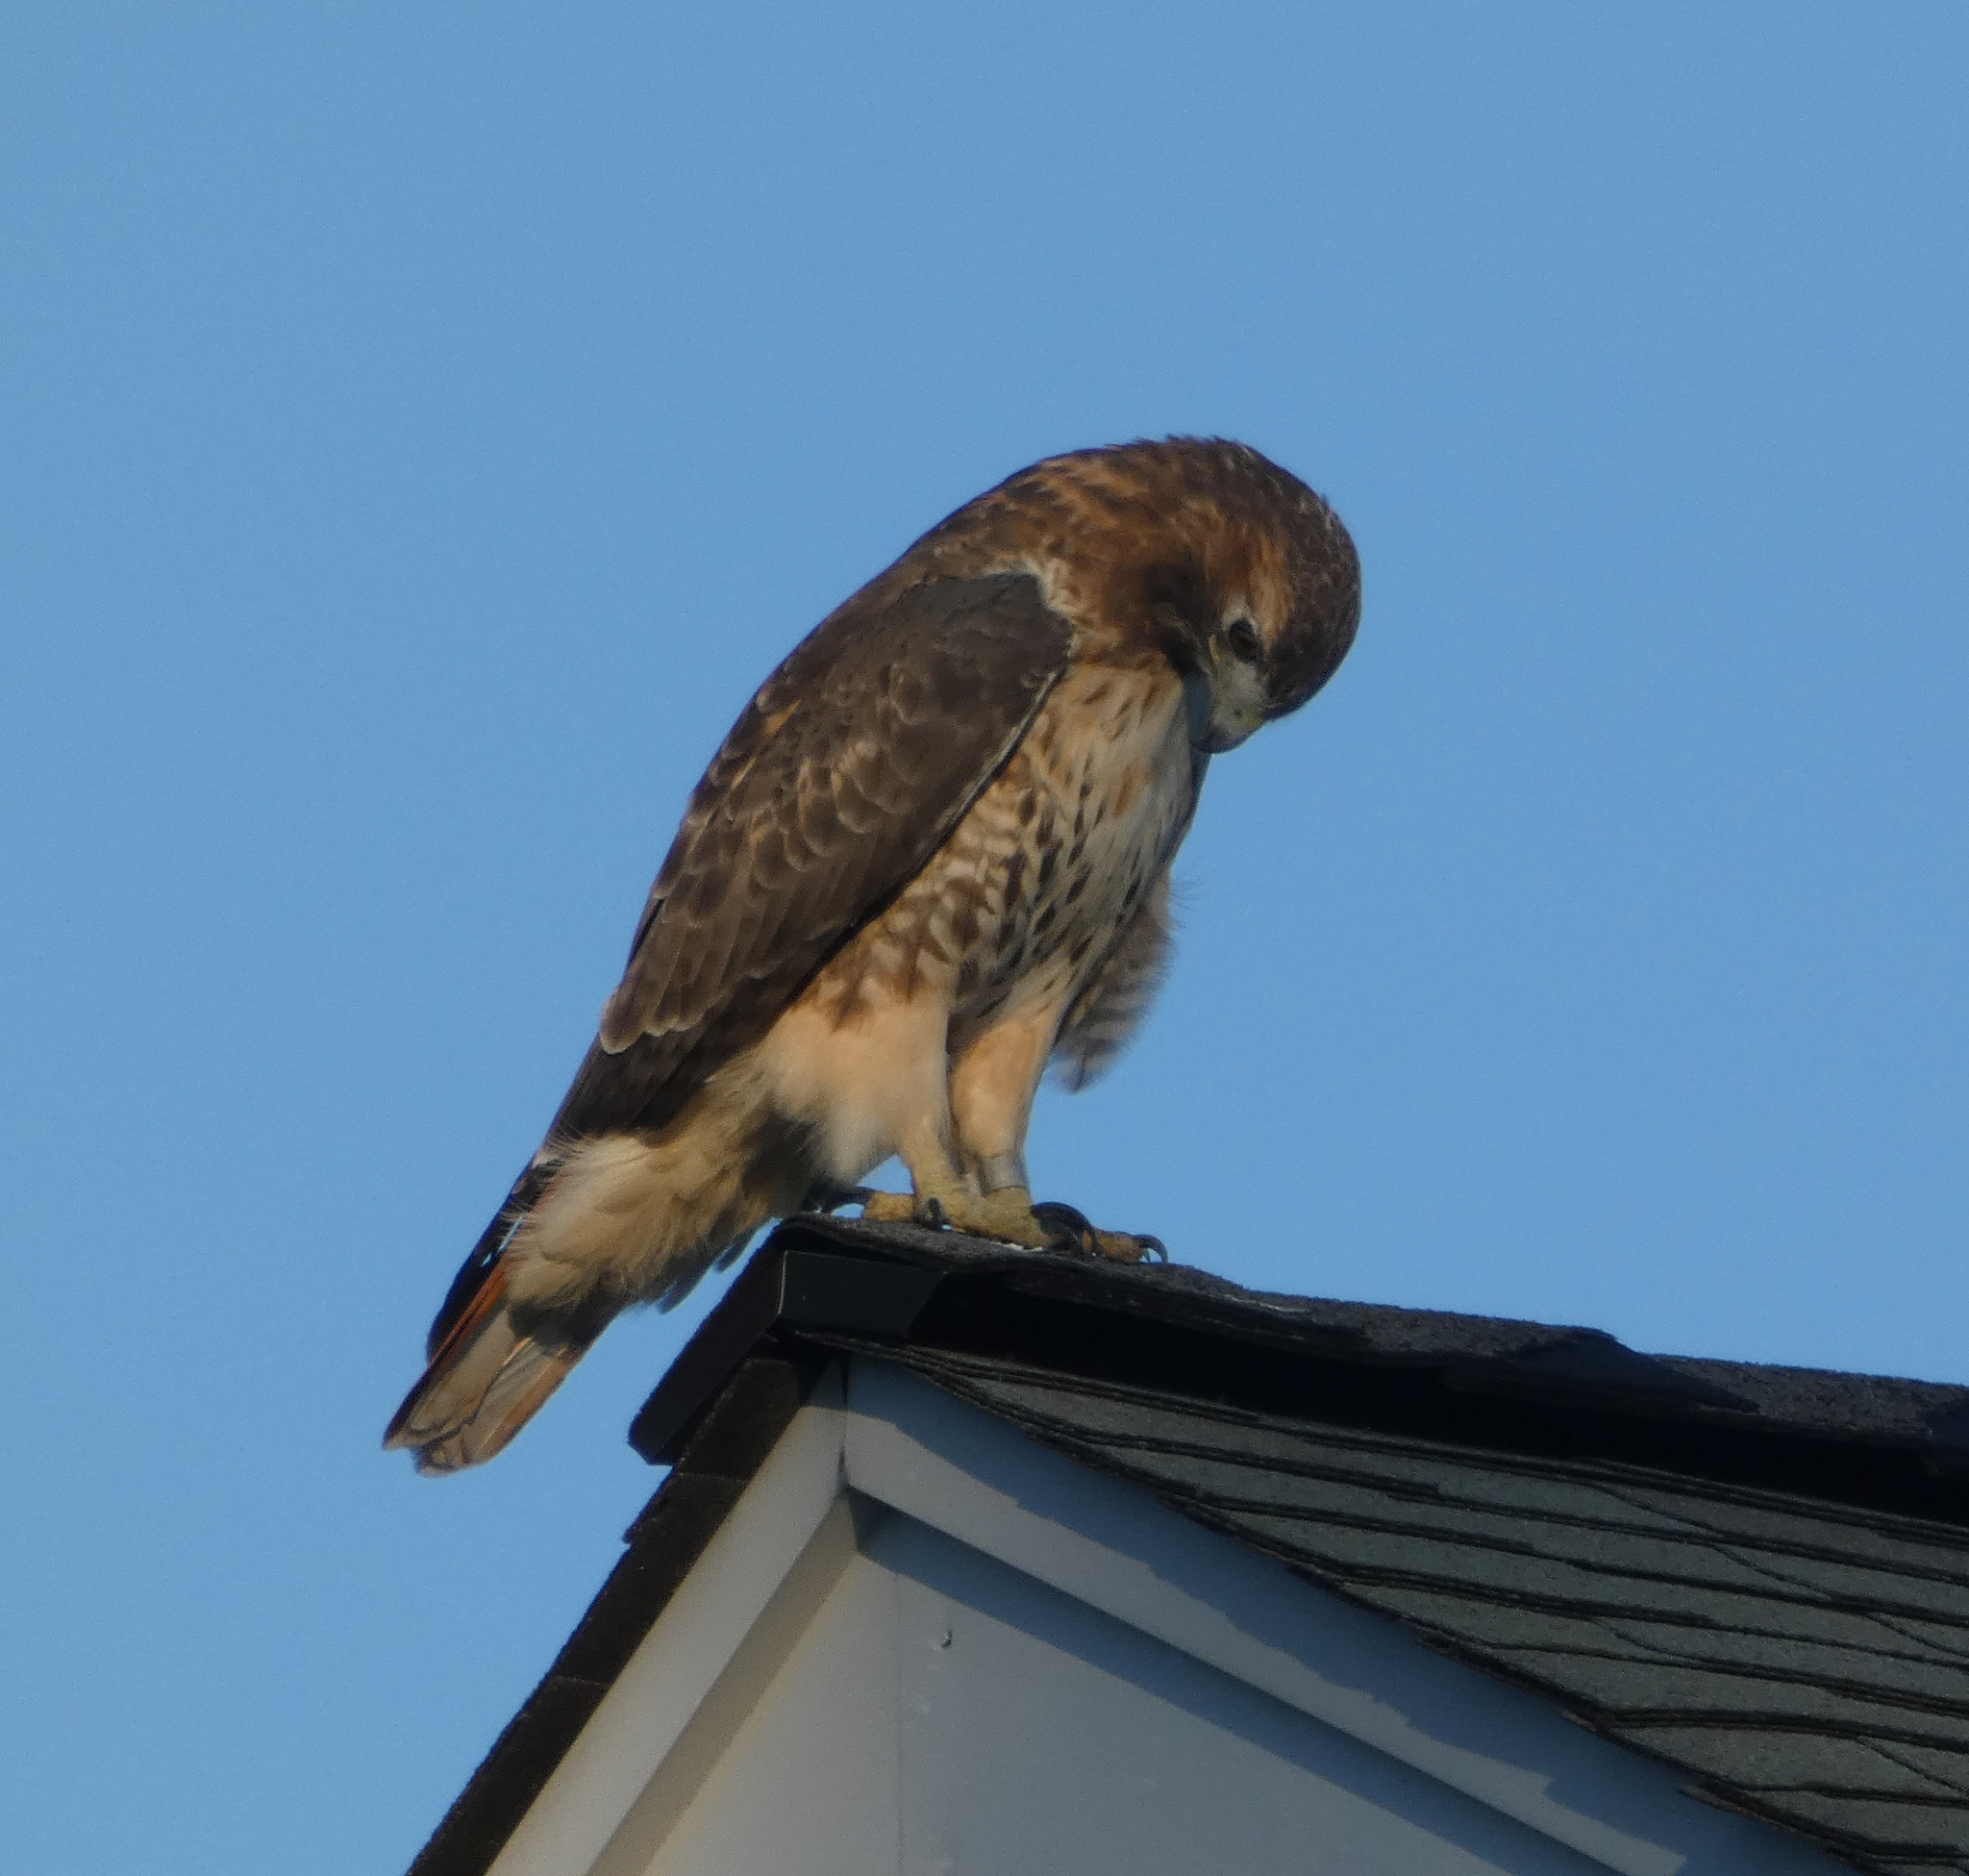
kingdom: Animalia
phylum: Chordata
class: Aves
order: Accipitriformes
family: Accipitridae
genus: Buteo
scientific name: Buteo jamaicensis
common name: Red-tailed hawk
